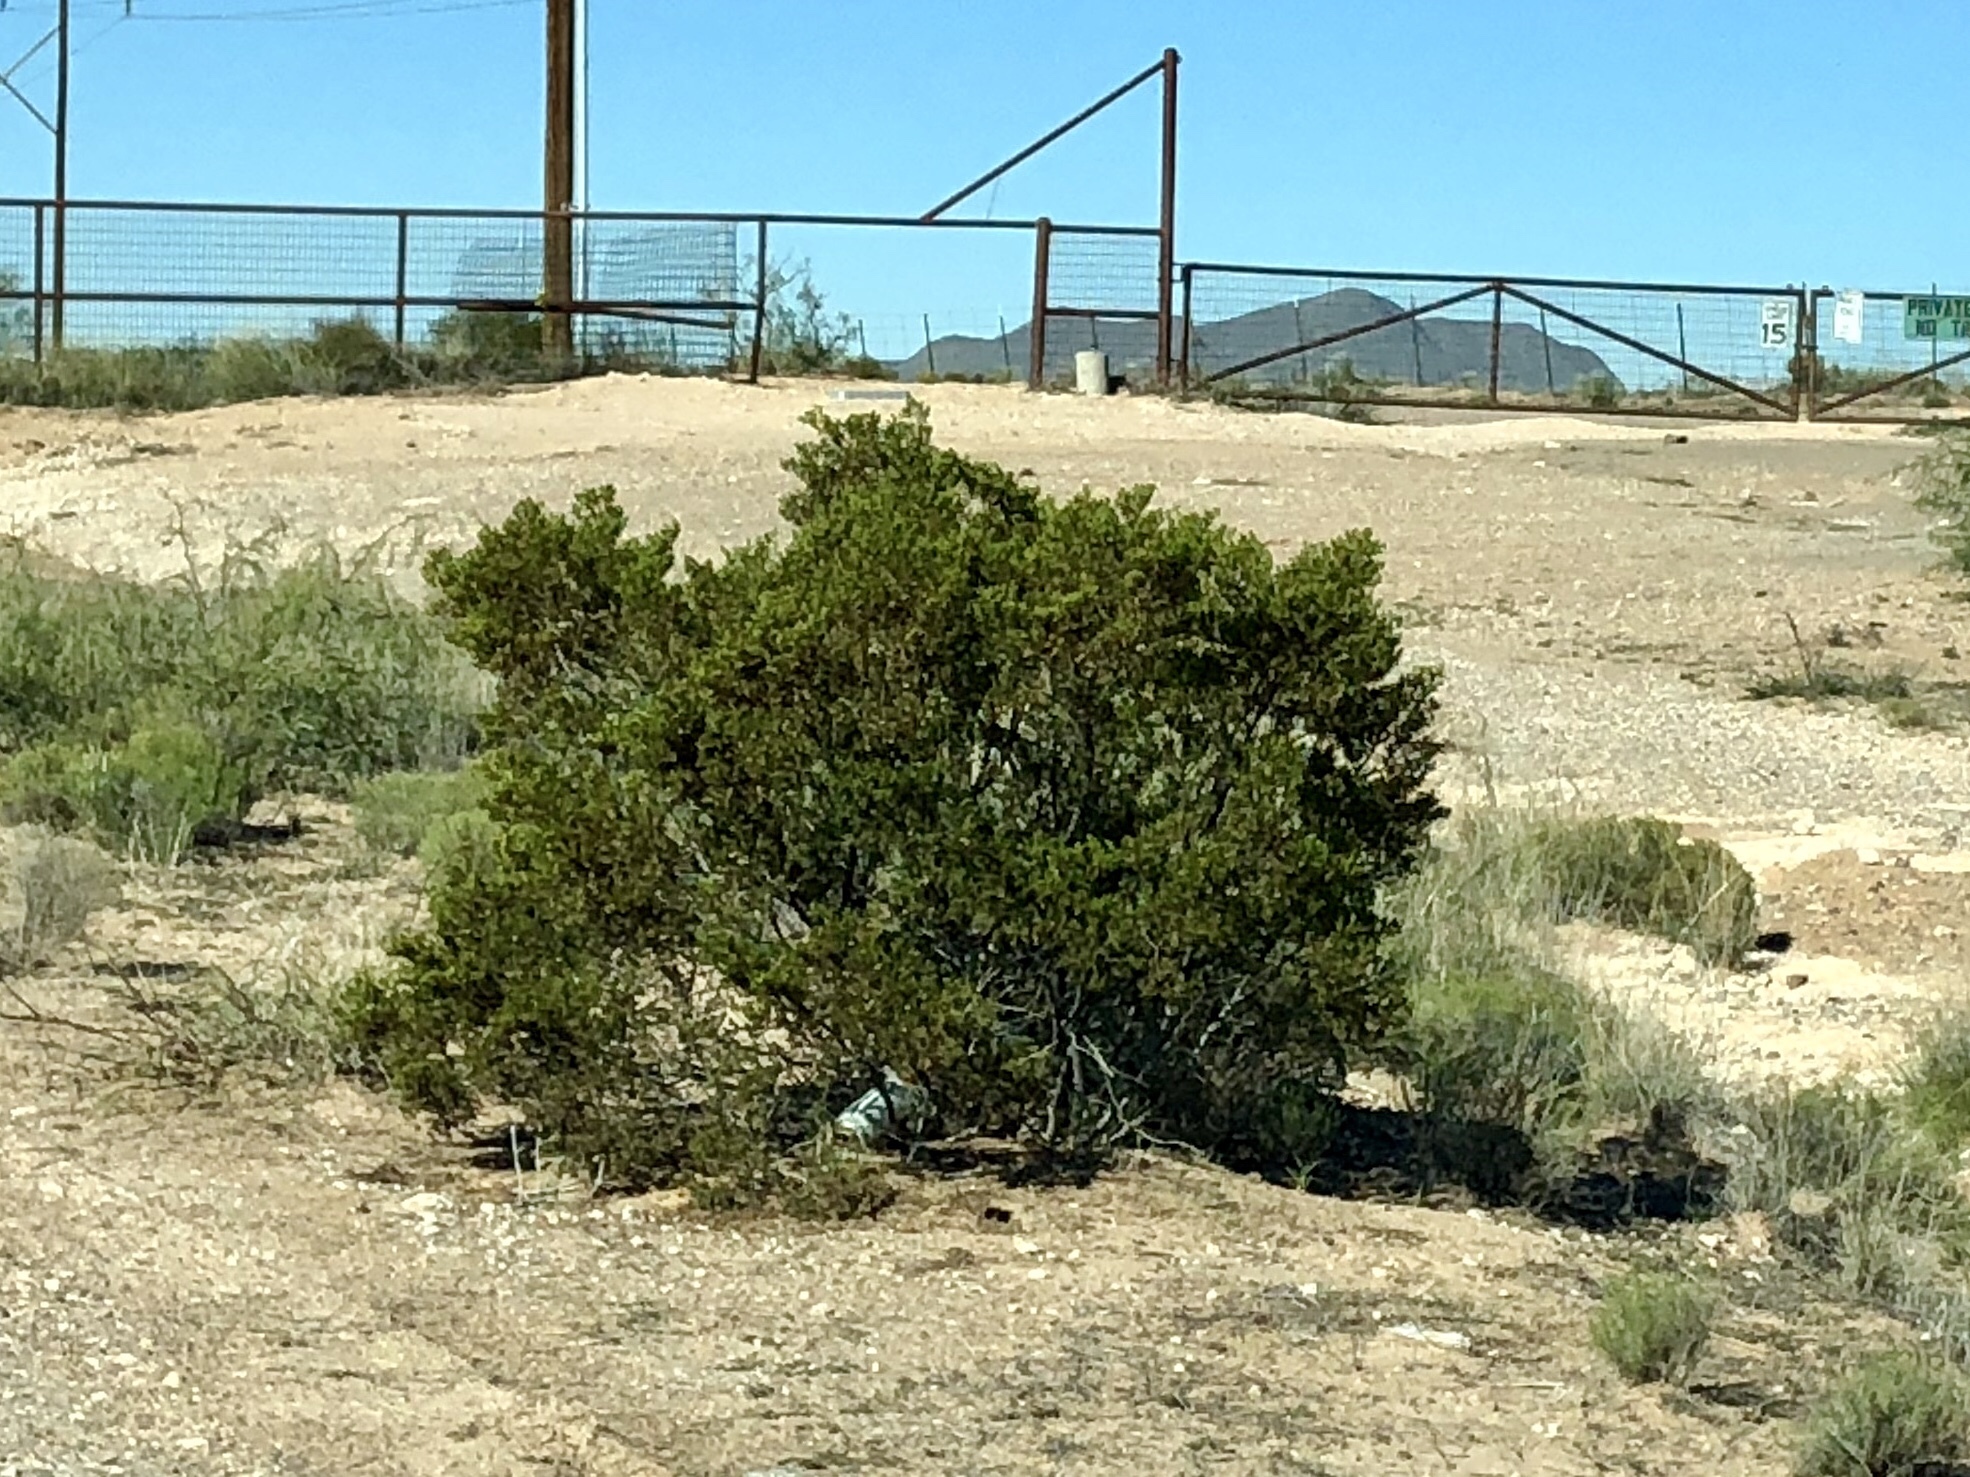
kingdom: Plantae
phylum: Tracheophyta
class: Magnoliopsida
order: Zygophyllales
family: Zygophyllaceae
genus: Larrea
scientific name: Larrea tridentata
